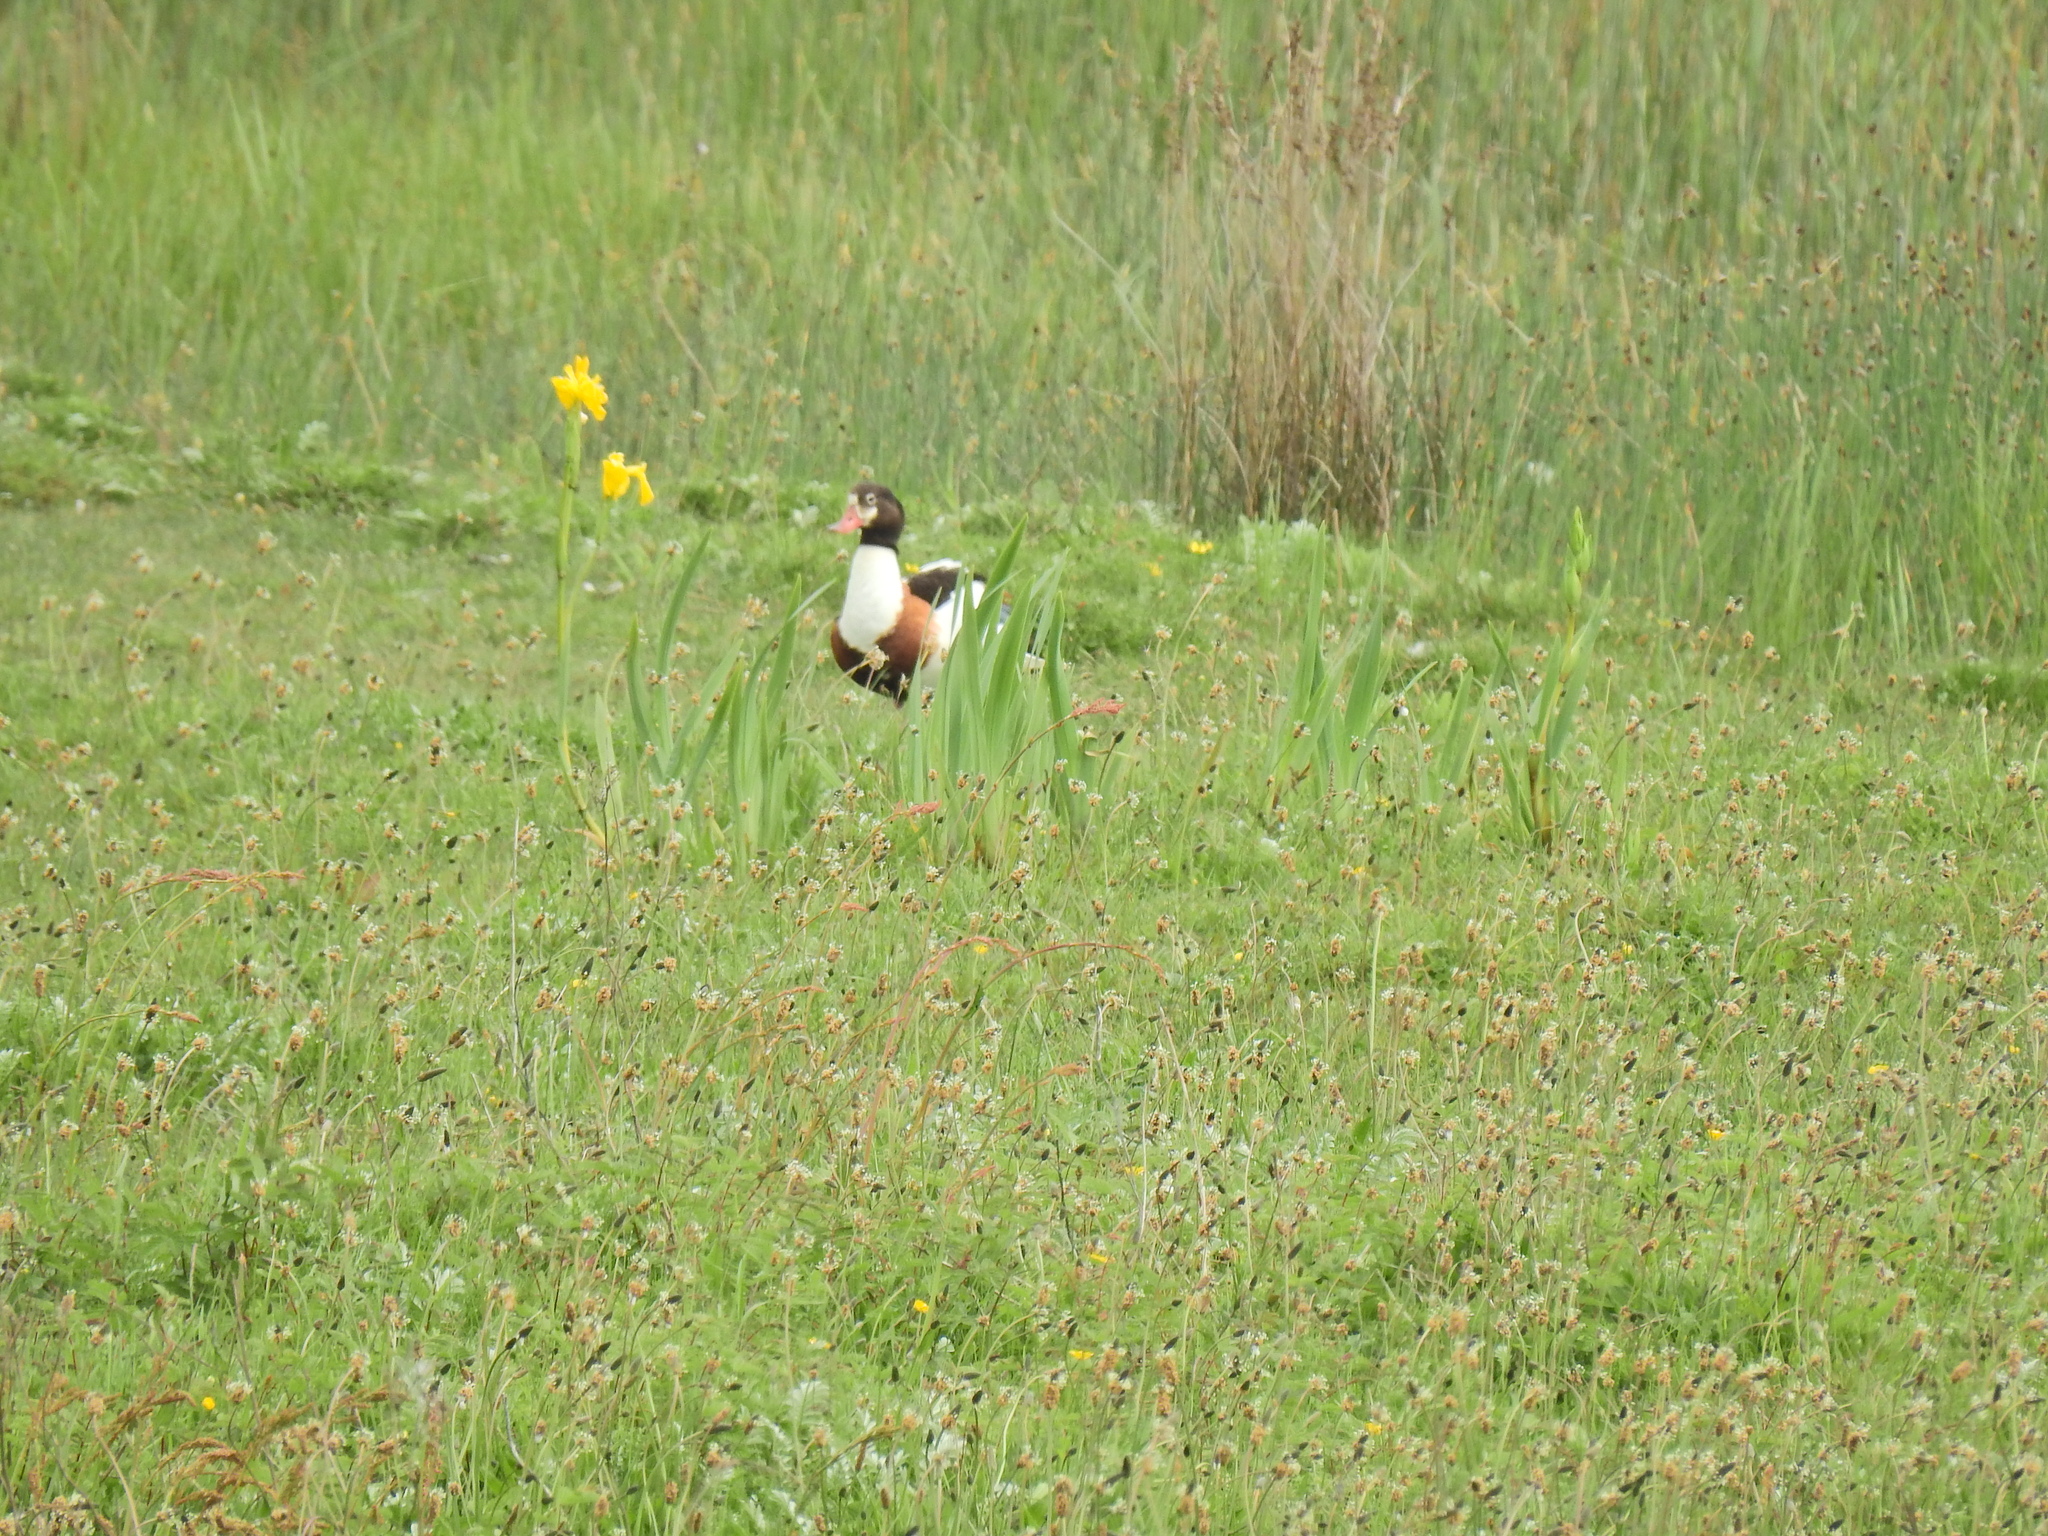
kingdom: Animalia
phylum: Chordata
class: Aves
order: Anseriformes
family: Anatidae
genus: Tadorna
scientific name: Tadorna tadorna
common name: Common shelduck
